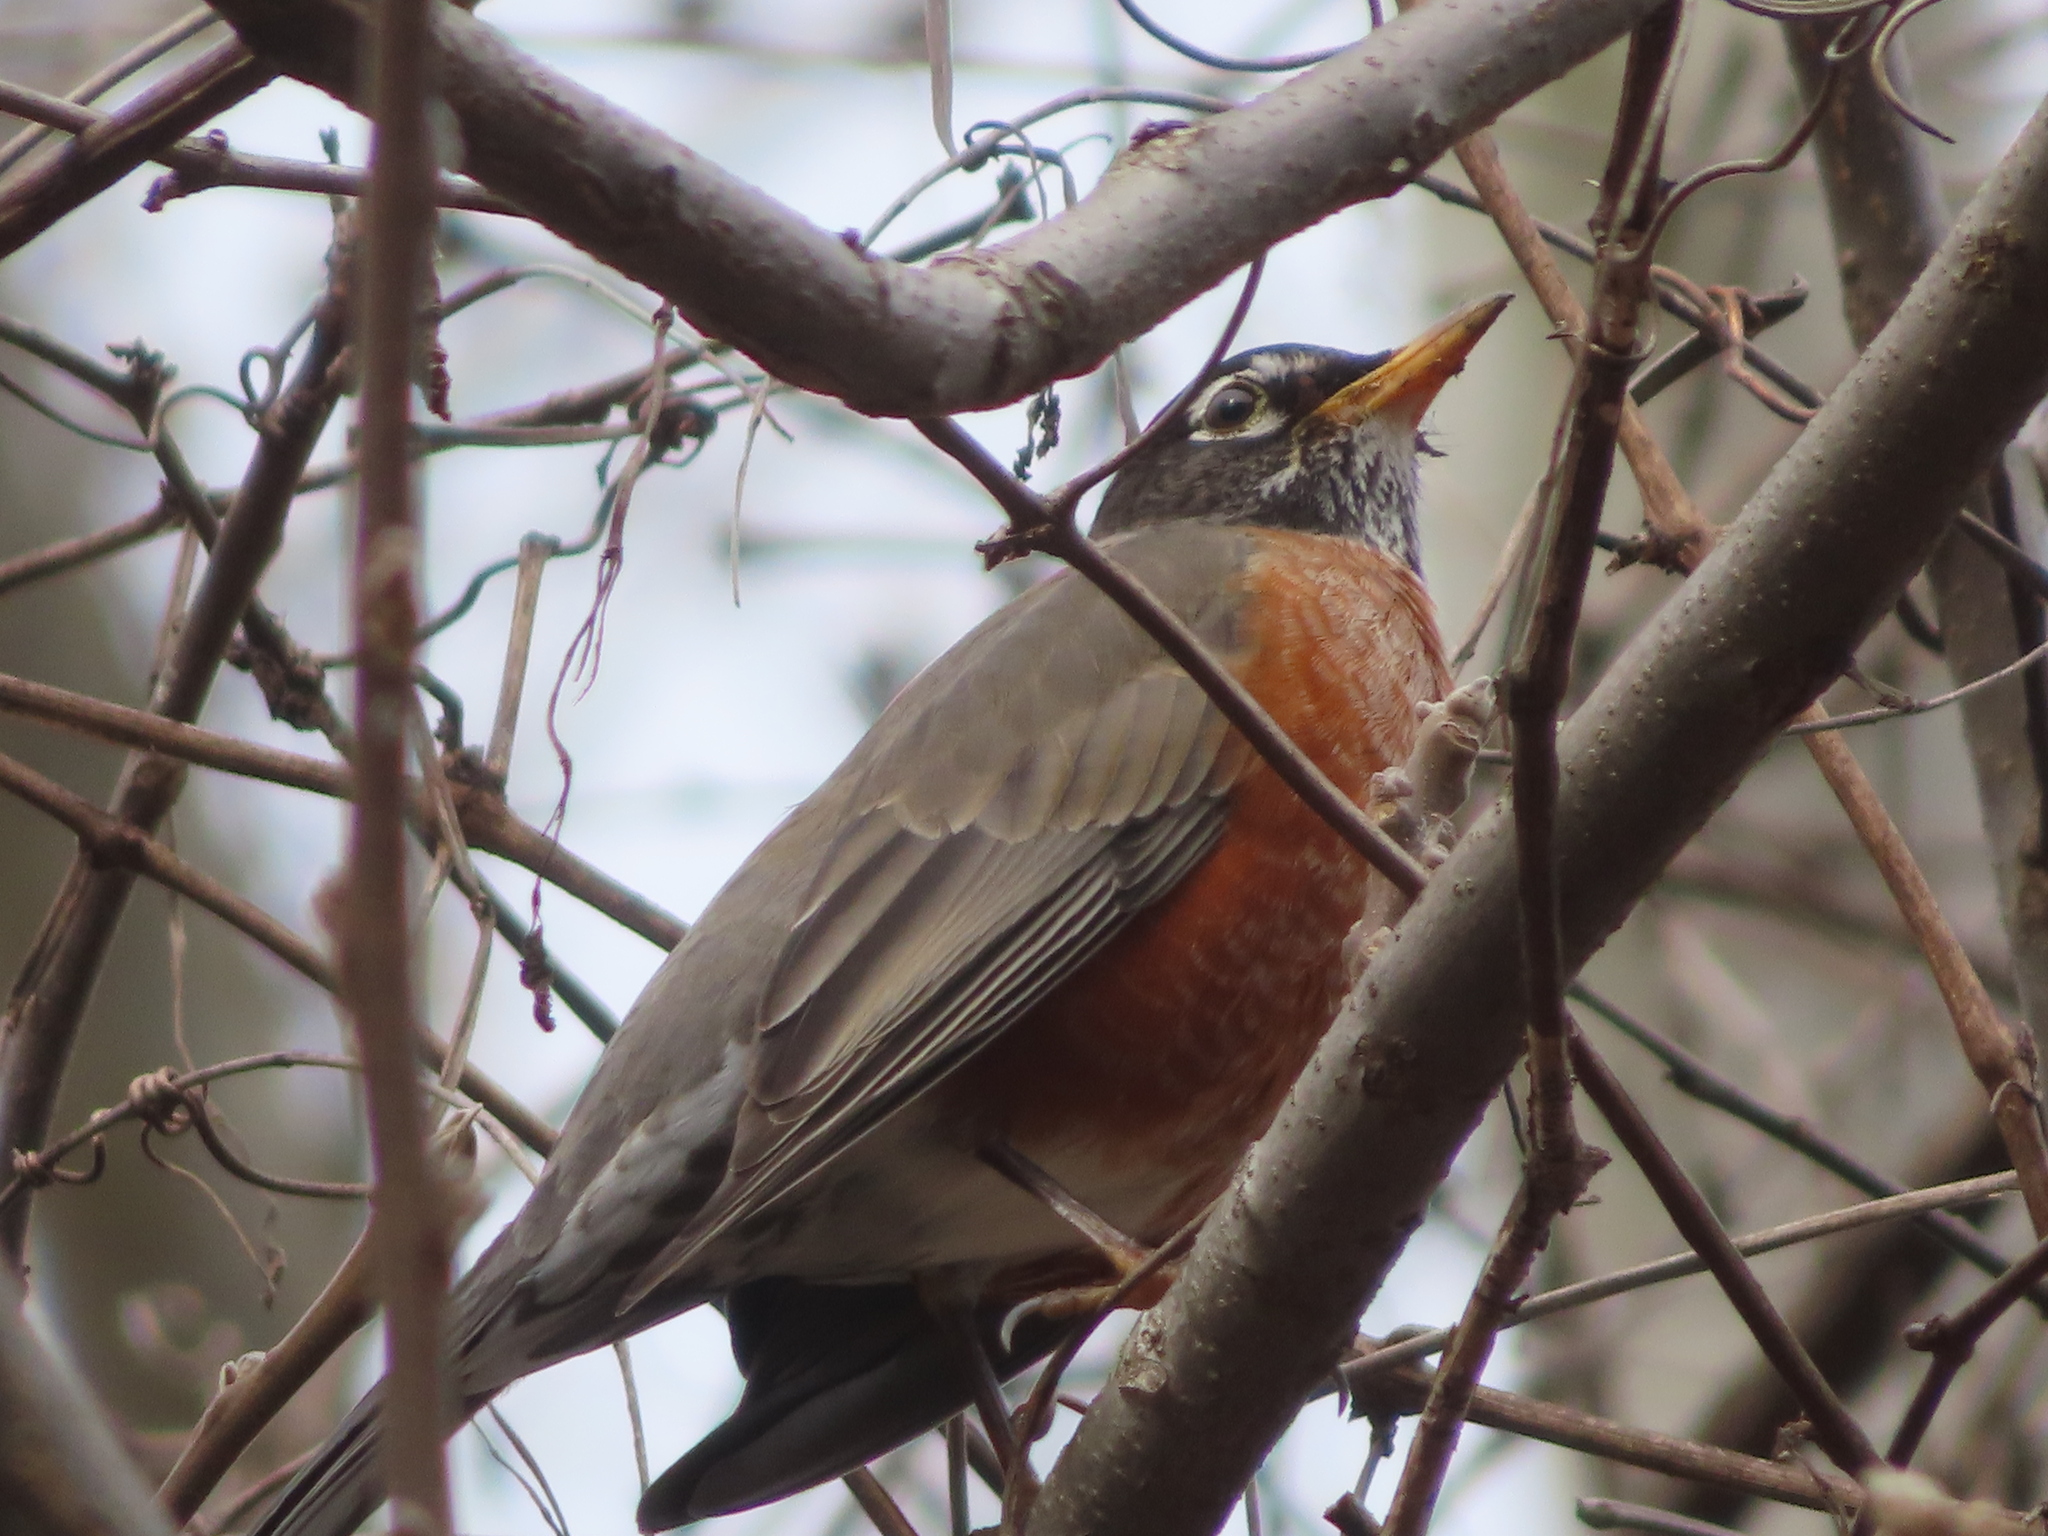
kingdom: Animalia
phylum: Chordata
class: Aves
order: Passeriformes
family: Turdidae
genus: Turdus
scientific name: Turdus migratorius
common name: American robin
